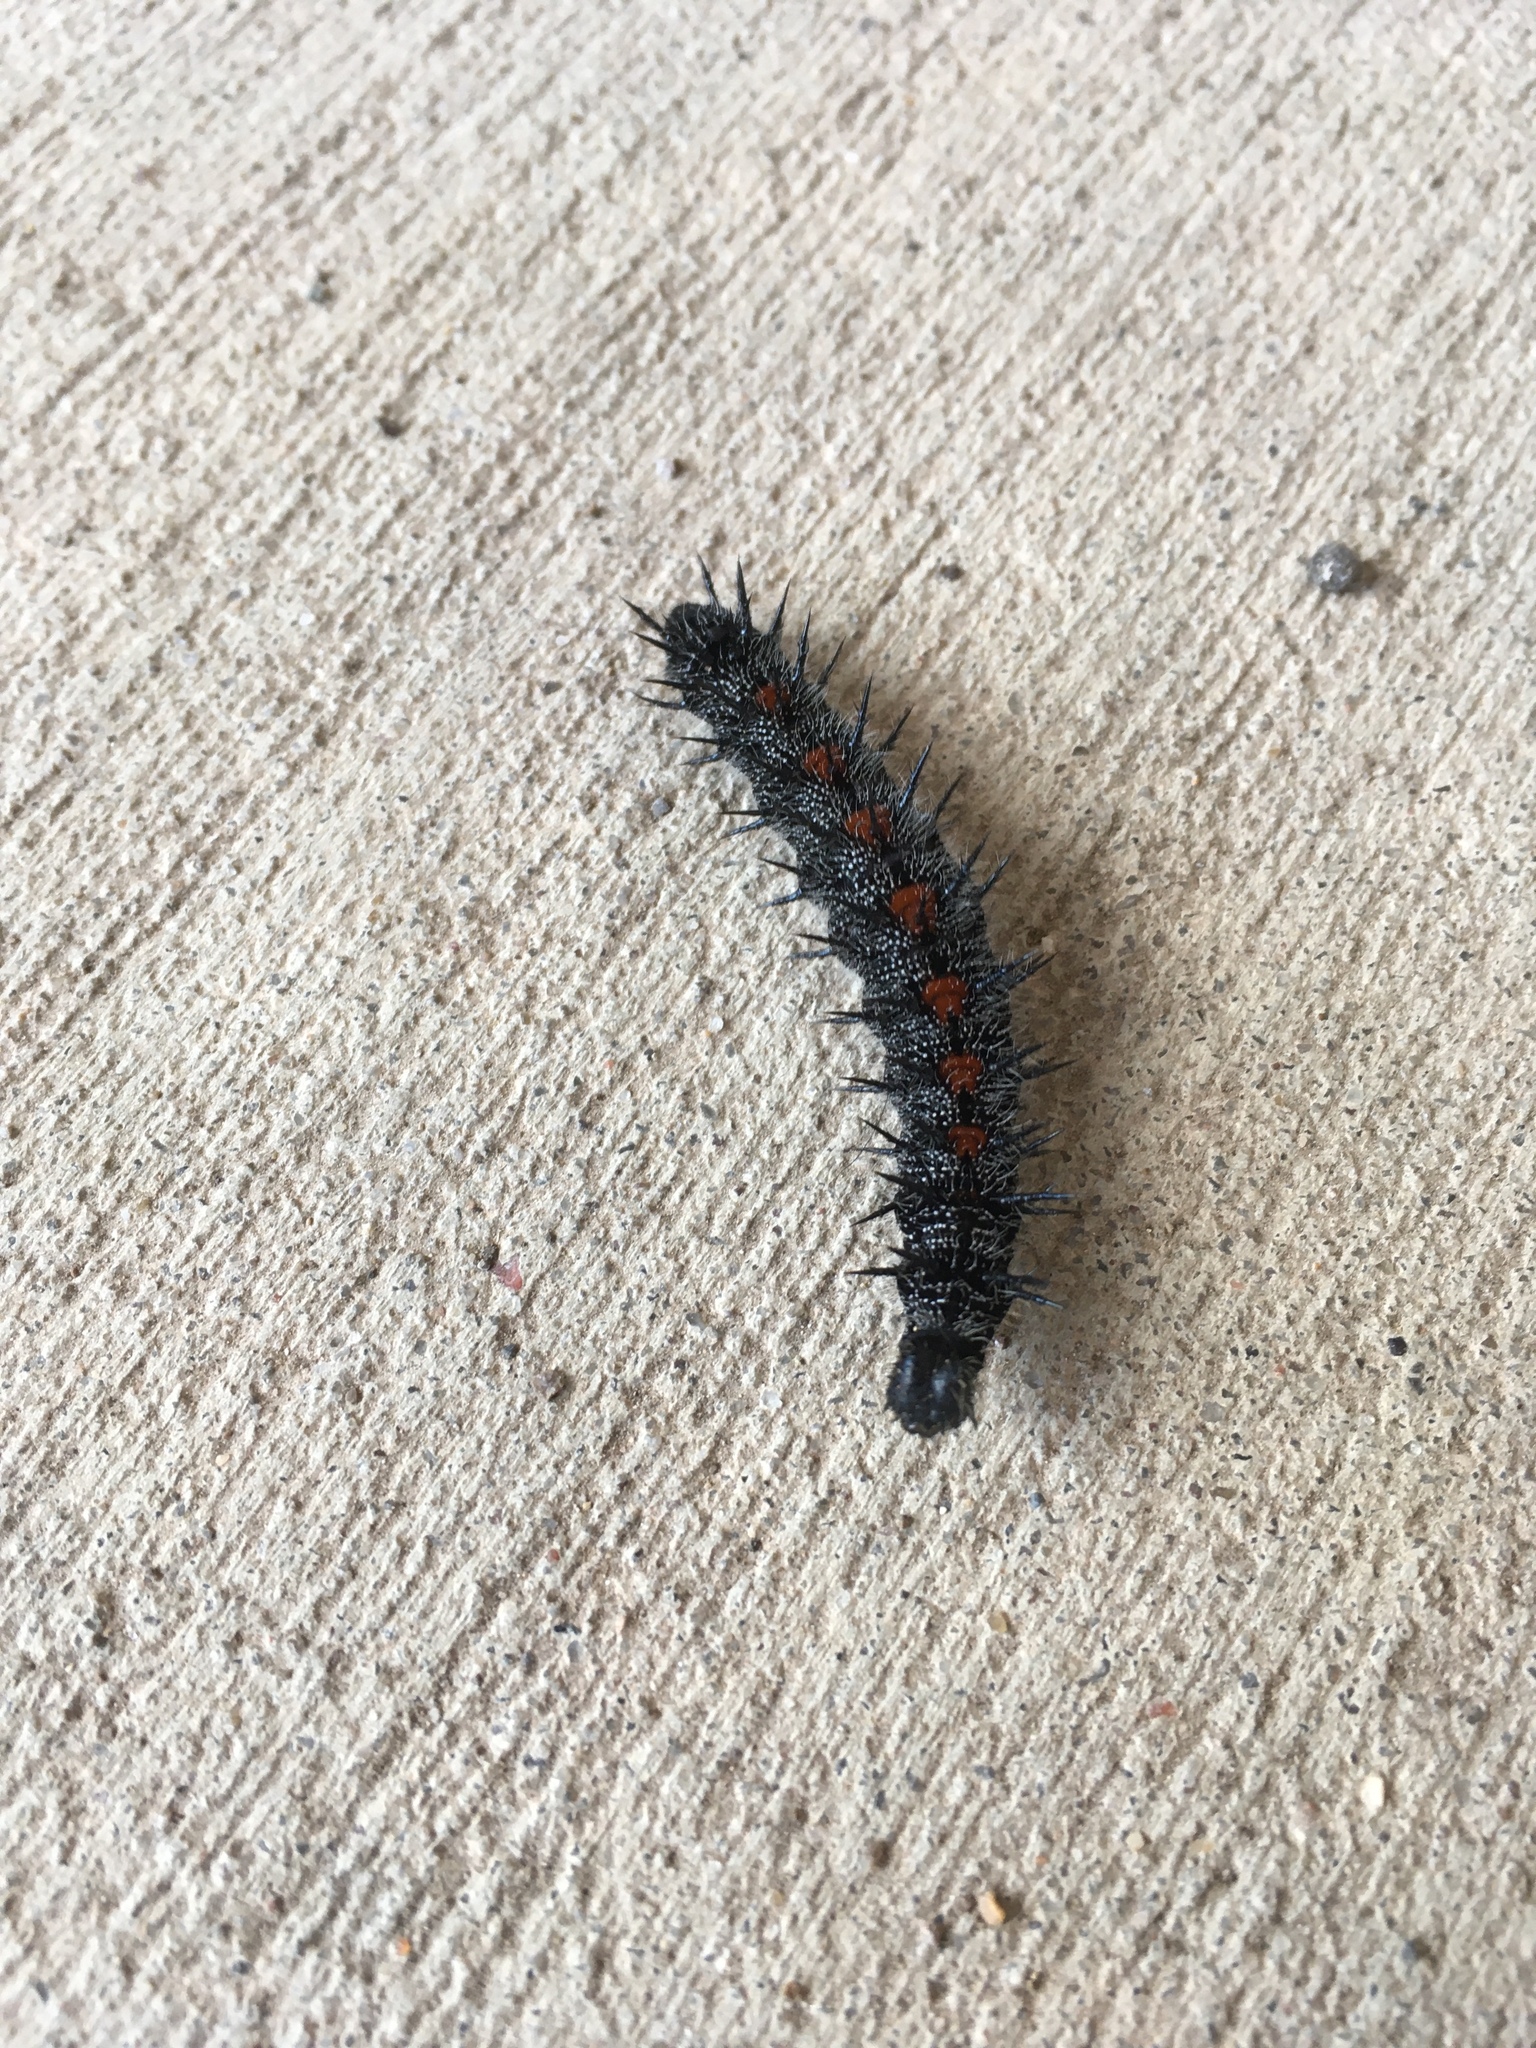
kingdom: Animalia
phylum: Arthropoda
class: Insecta
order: Lepidoptera
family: Nymphalidae
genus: Nymphalis
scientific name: Nymphalis antiopa
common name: Camberwell beauty
